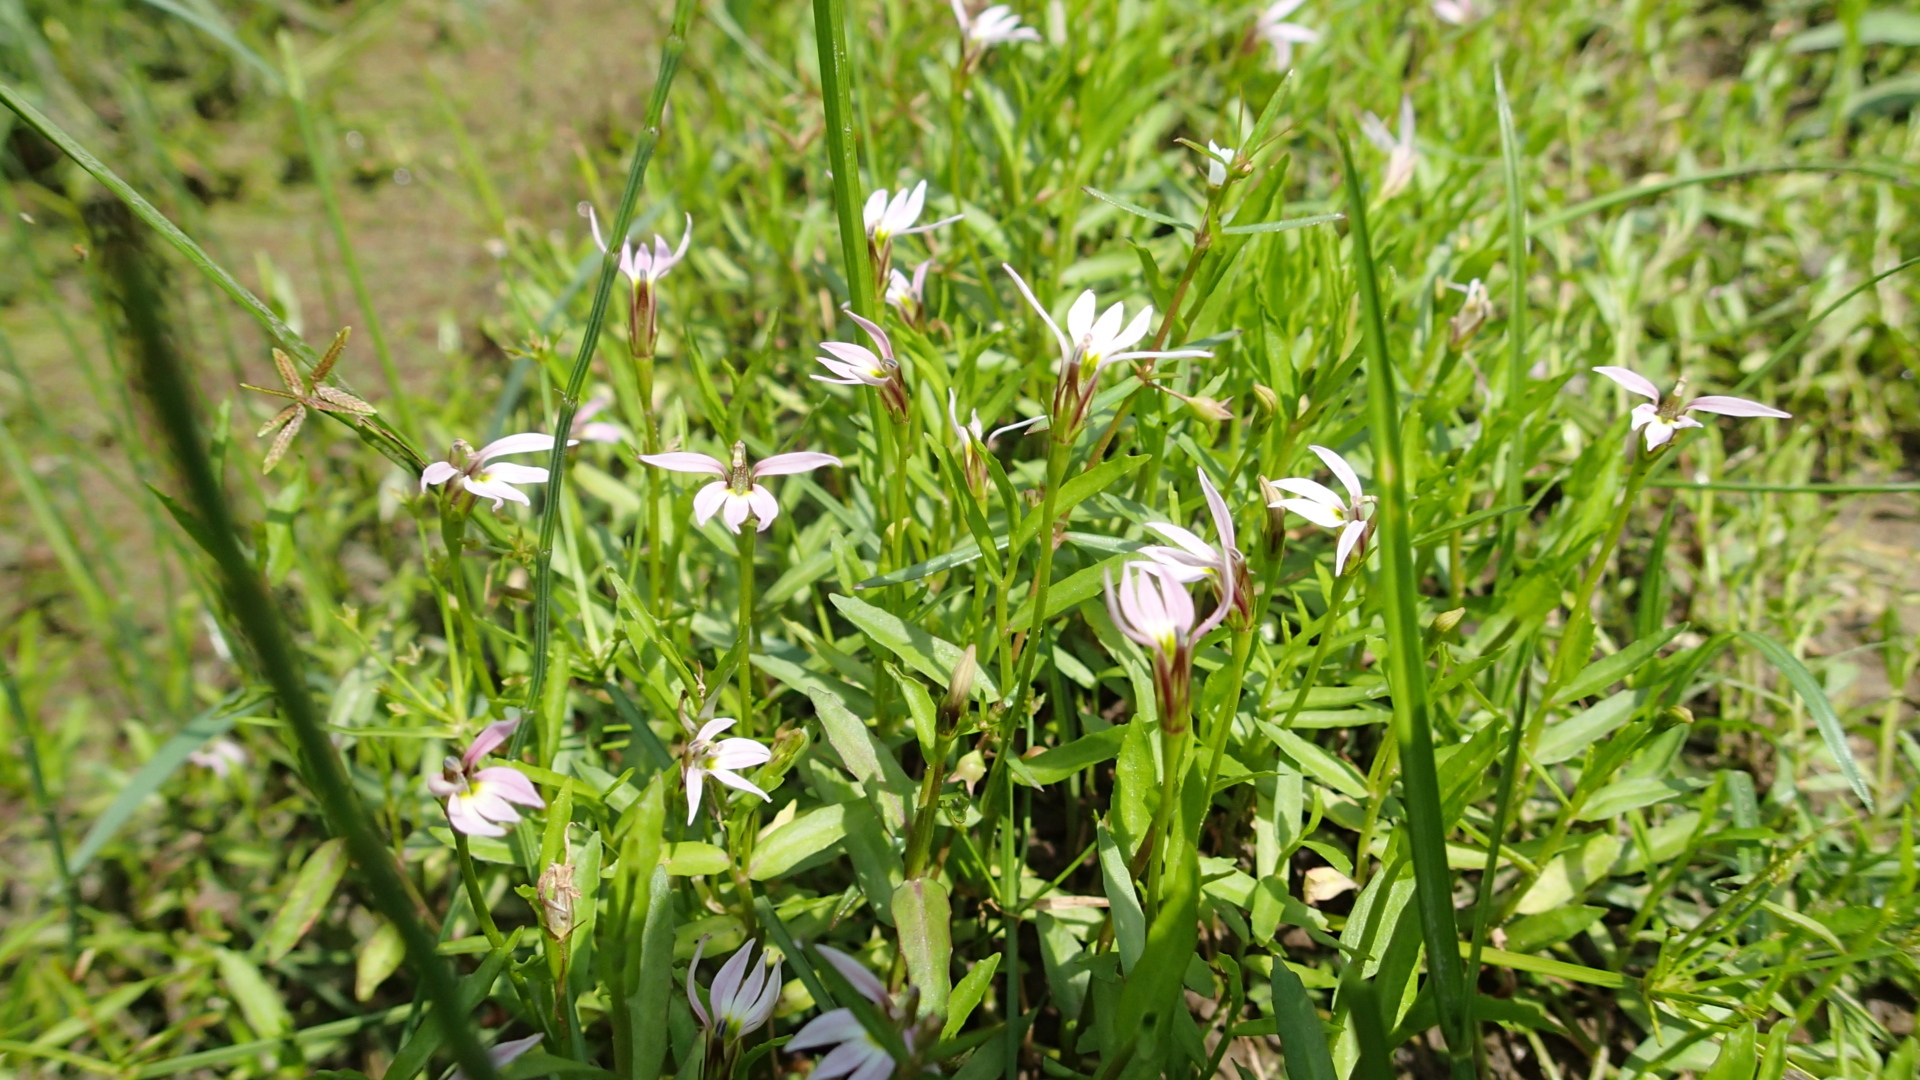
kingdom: Plantae
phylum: Tracheophyta
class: Magnoliopsida
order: Asterales
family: Campanulaceae
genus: Lobelia
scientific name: Lobelia chinensis
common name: Chinese lobelia
